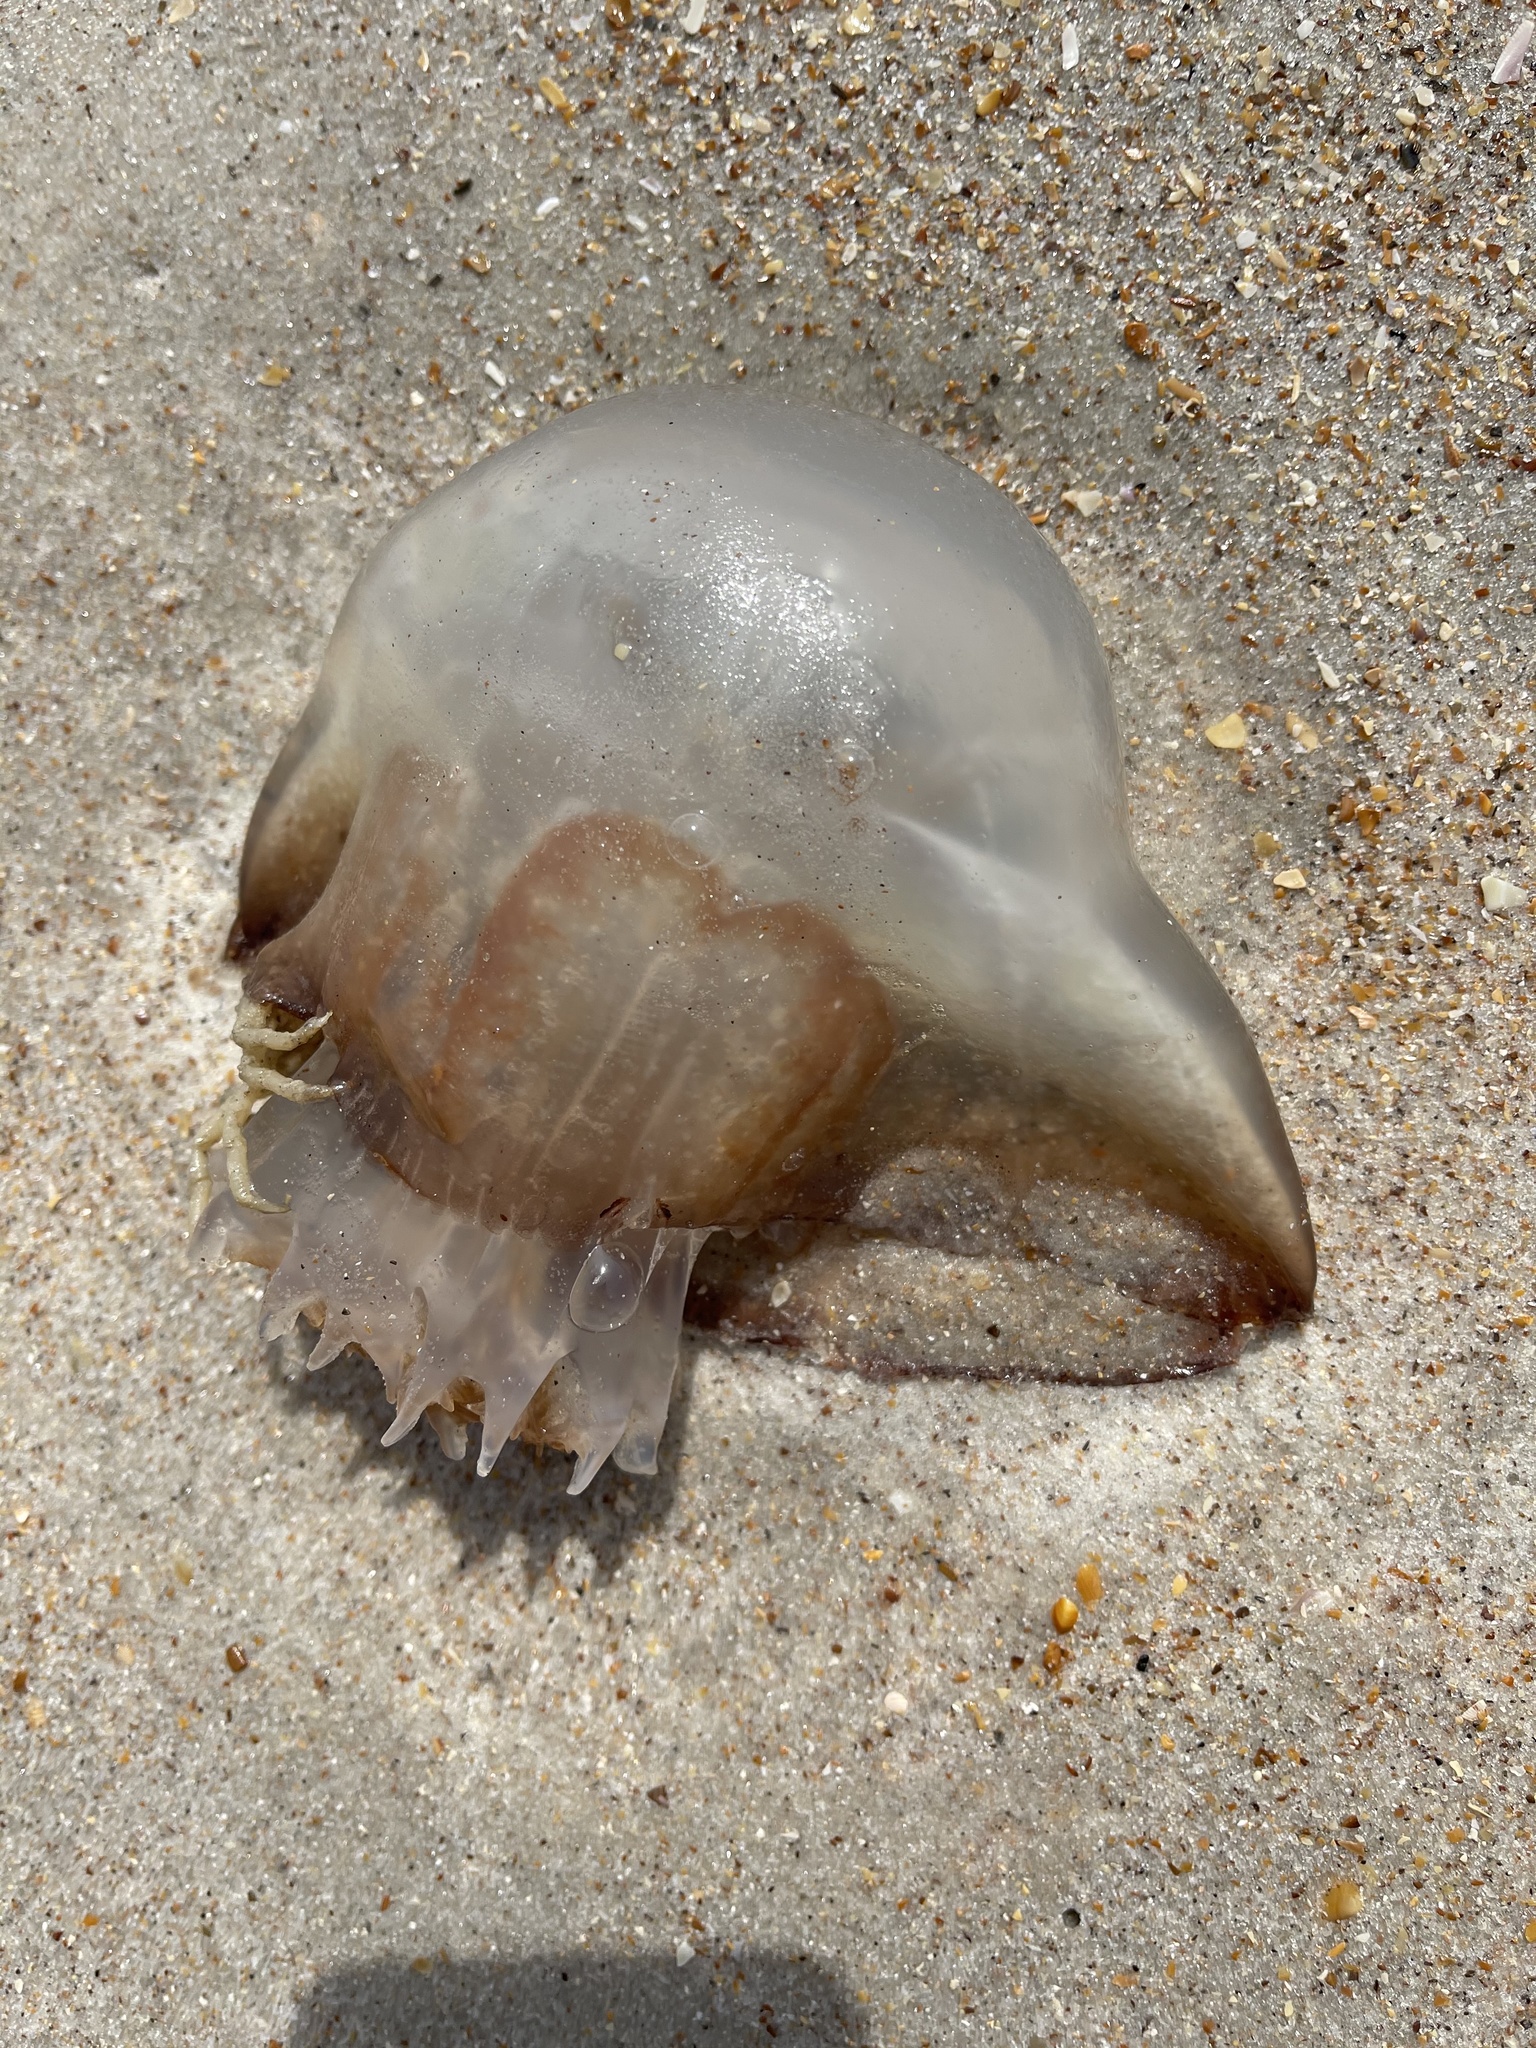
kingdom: Animalia
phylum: Cnidaria
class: Scyphozoa
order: Rhizostomeae
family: Stomolophidae
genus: Stomolophus
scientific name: Stomolophus meleagris
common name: Cabbagehead
